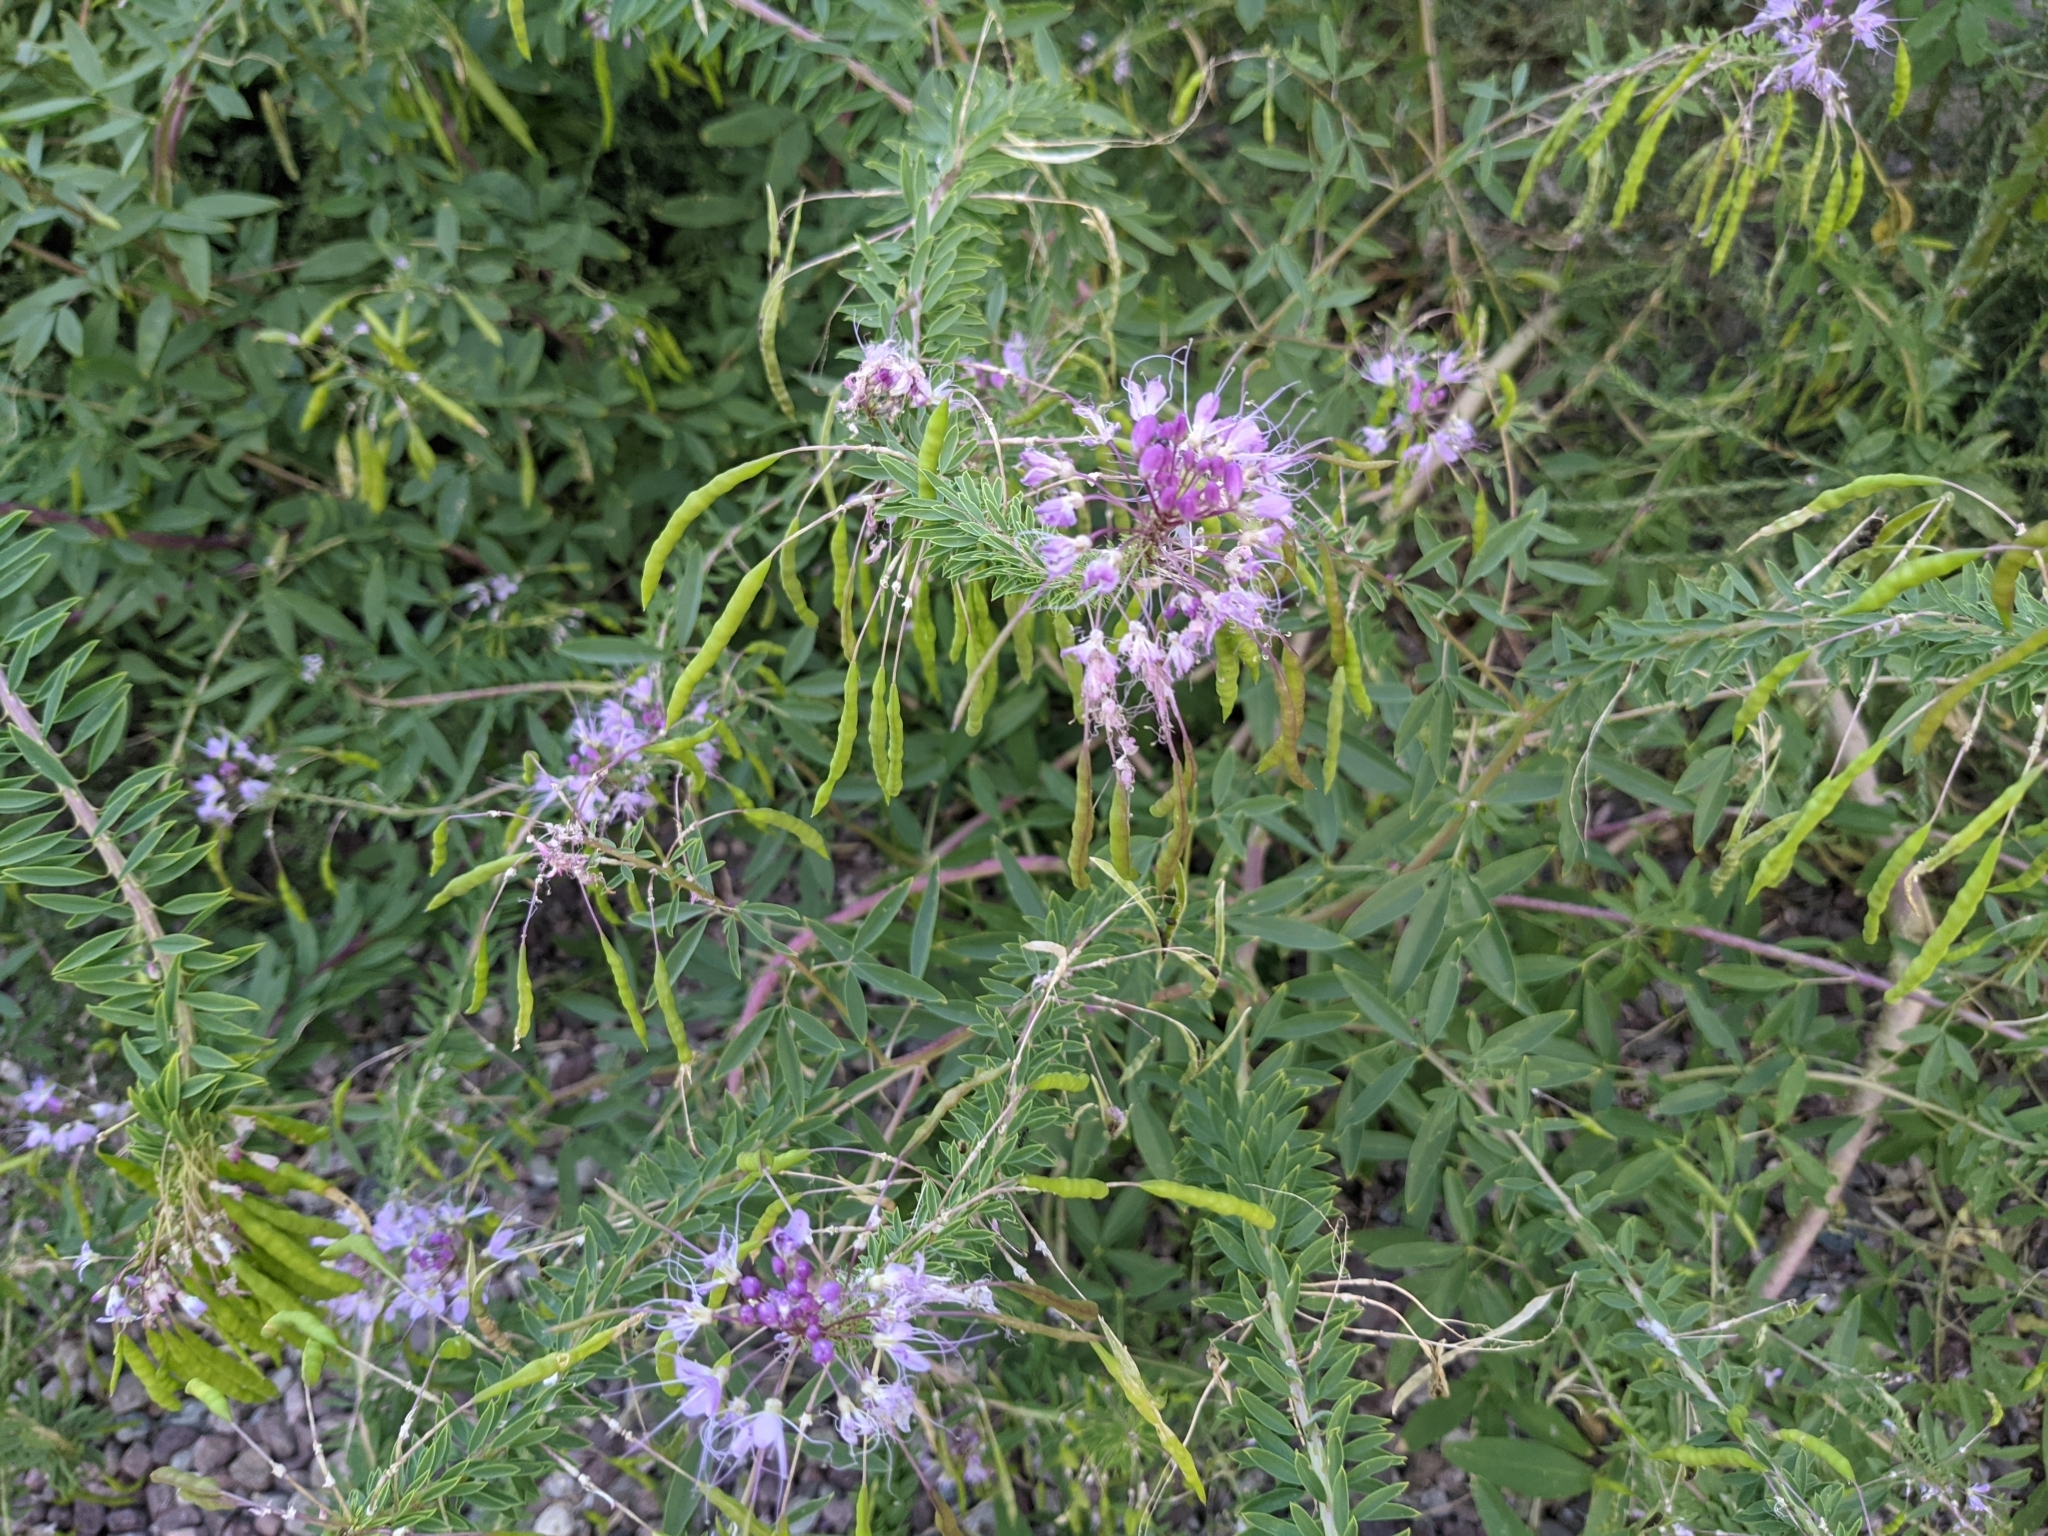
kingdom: Plantae
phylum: Tracheophyta
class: Magnoliopsida
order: Brassicales
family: Cleomaceae
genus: Cleomella
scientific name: Cleomella serrulata
